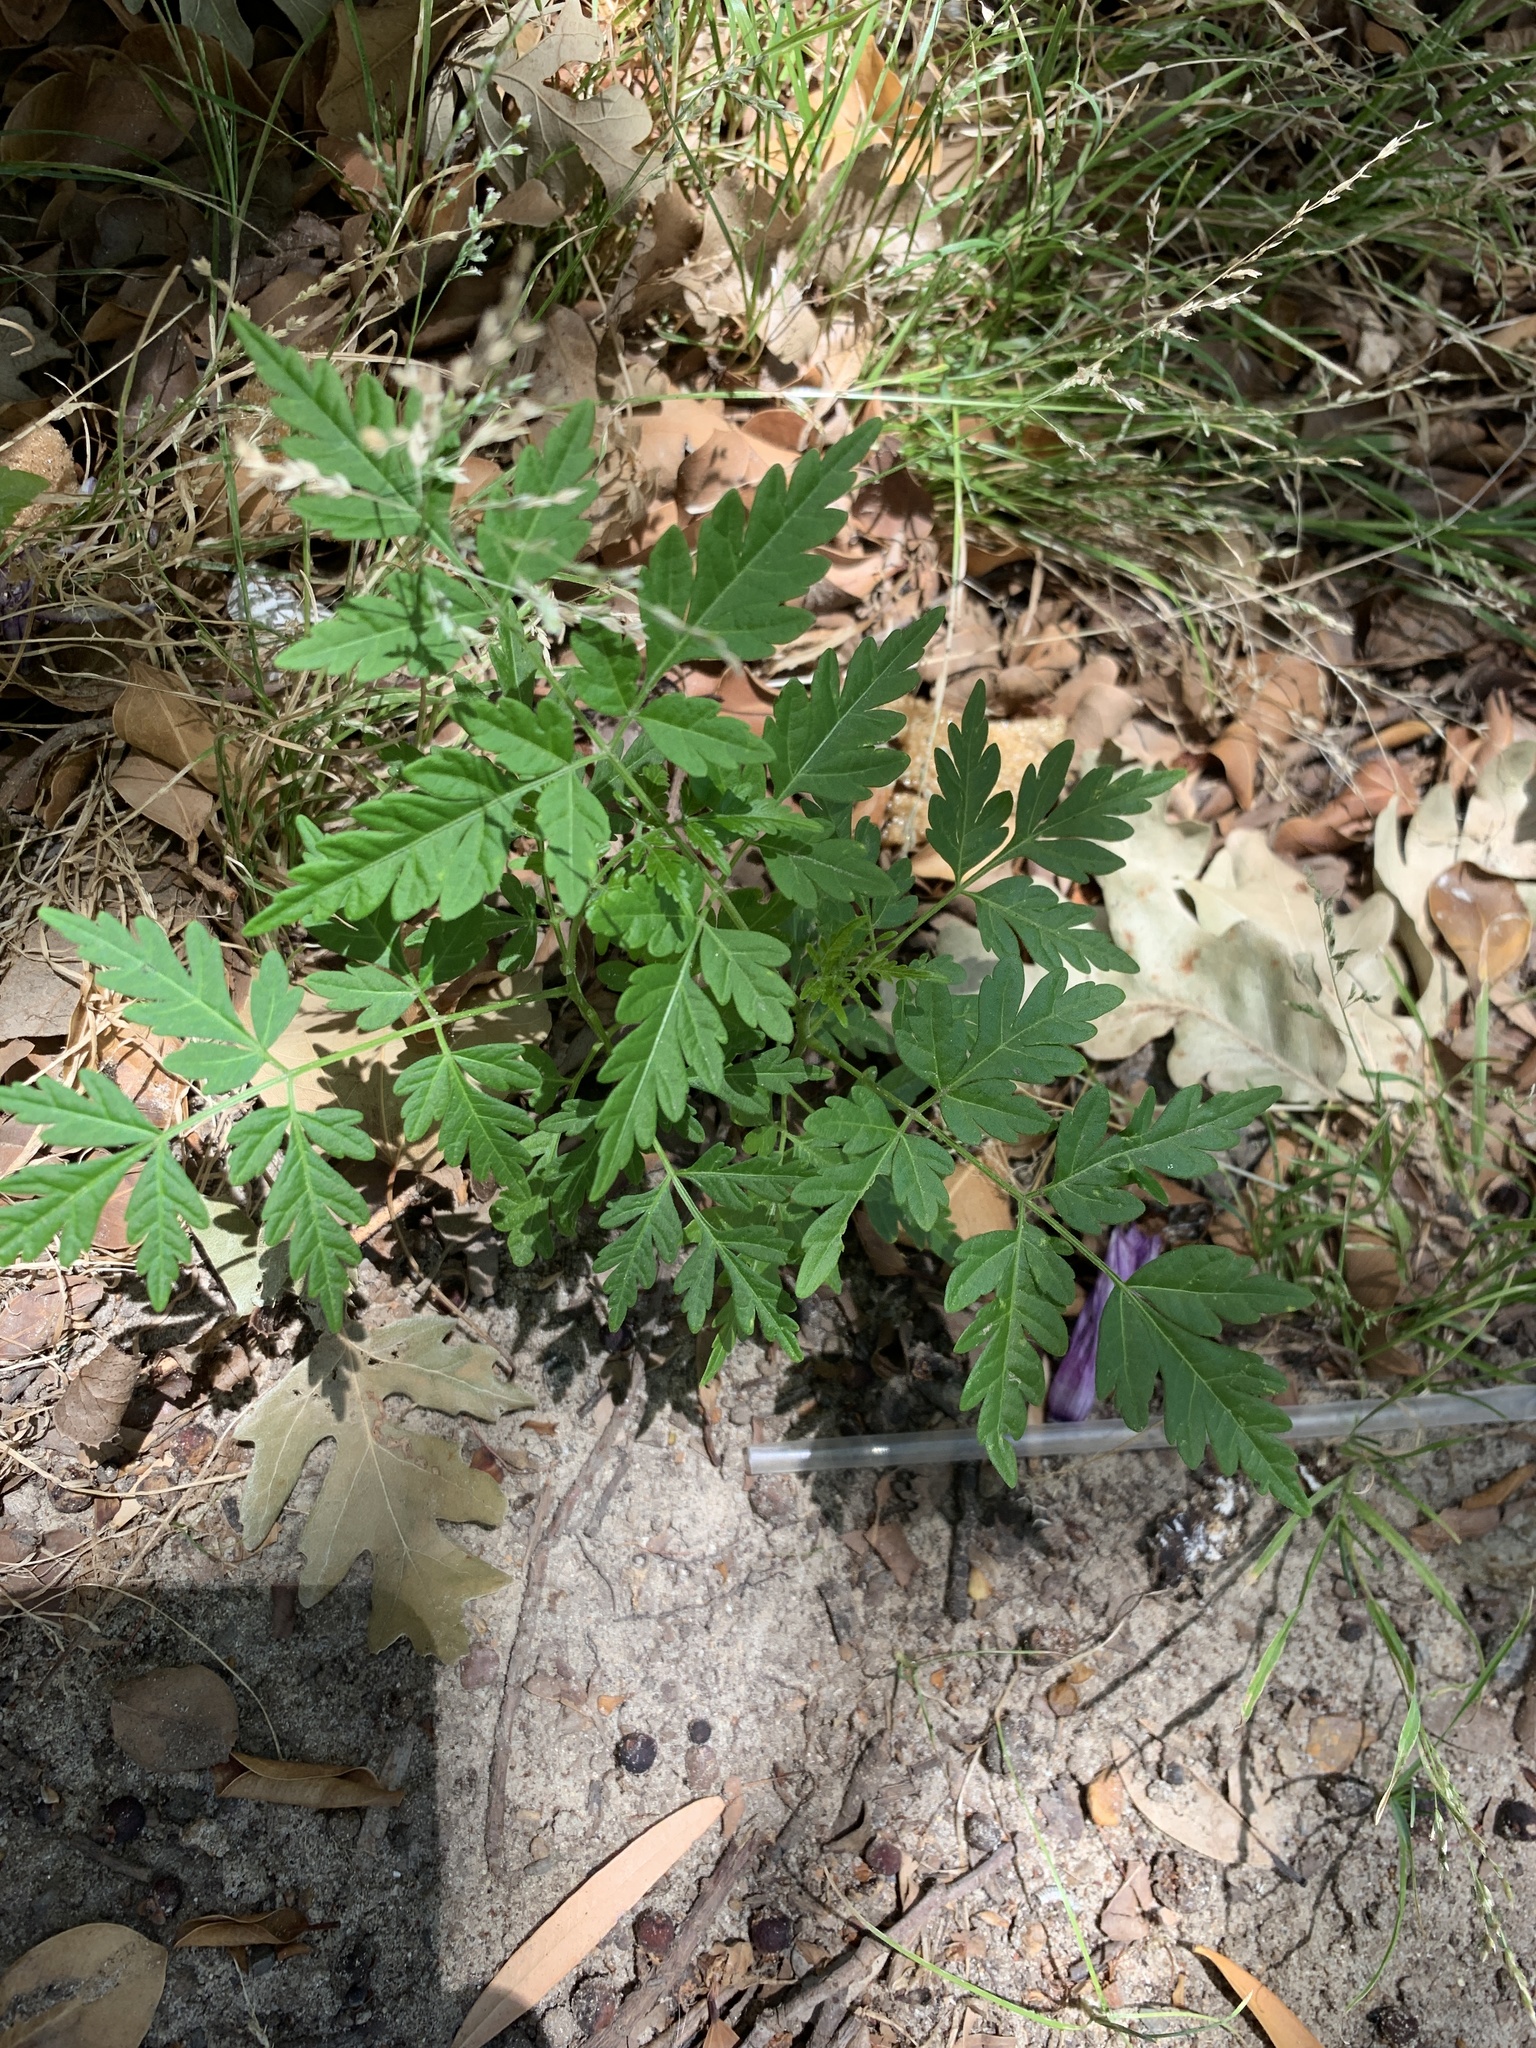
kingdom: Plantae
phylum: Tracheophyta
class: Magnoliopsida
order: Sapindales
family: Meliaceae
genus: Melia
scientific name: Melia azedarach
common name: Chinaberrytree
